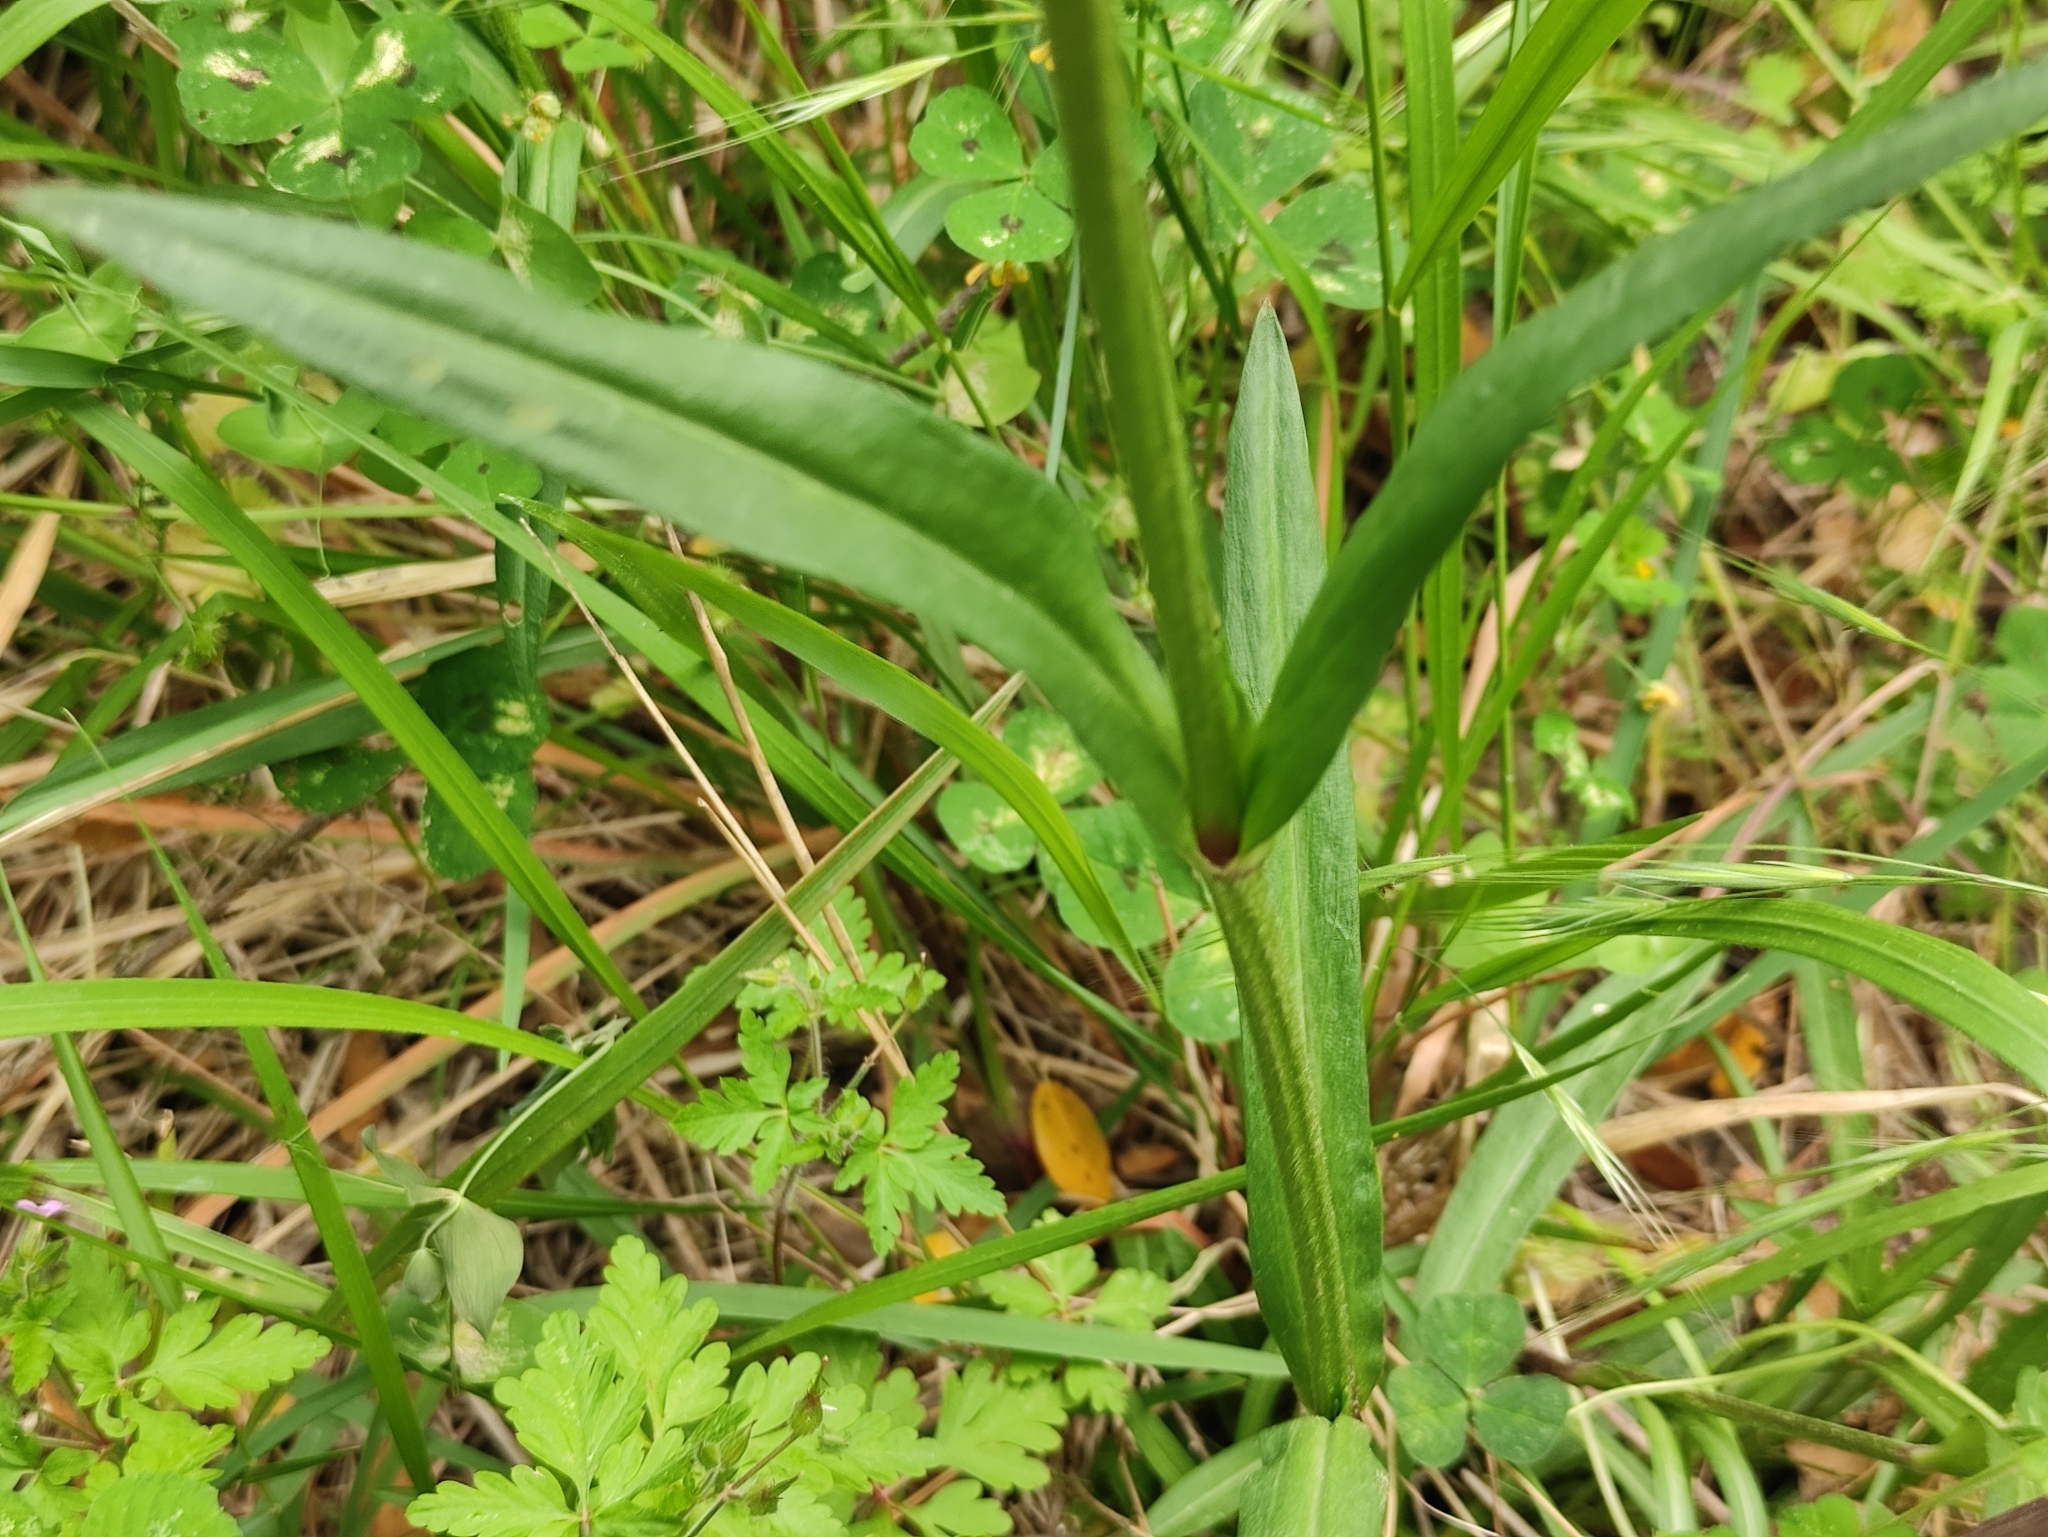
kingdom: Plantae
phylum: Tracheophyta
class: Magnoliopsida
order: Caryophyllales
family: Caryophyllaceae
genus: Silene
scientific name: Silene flos-cuculi
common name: Ragged-robin
